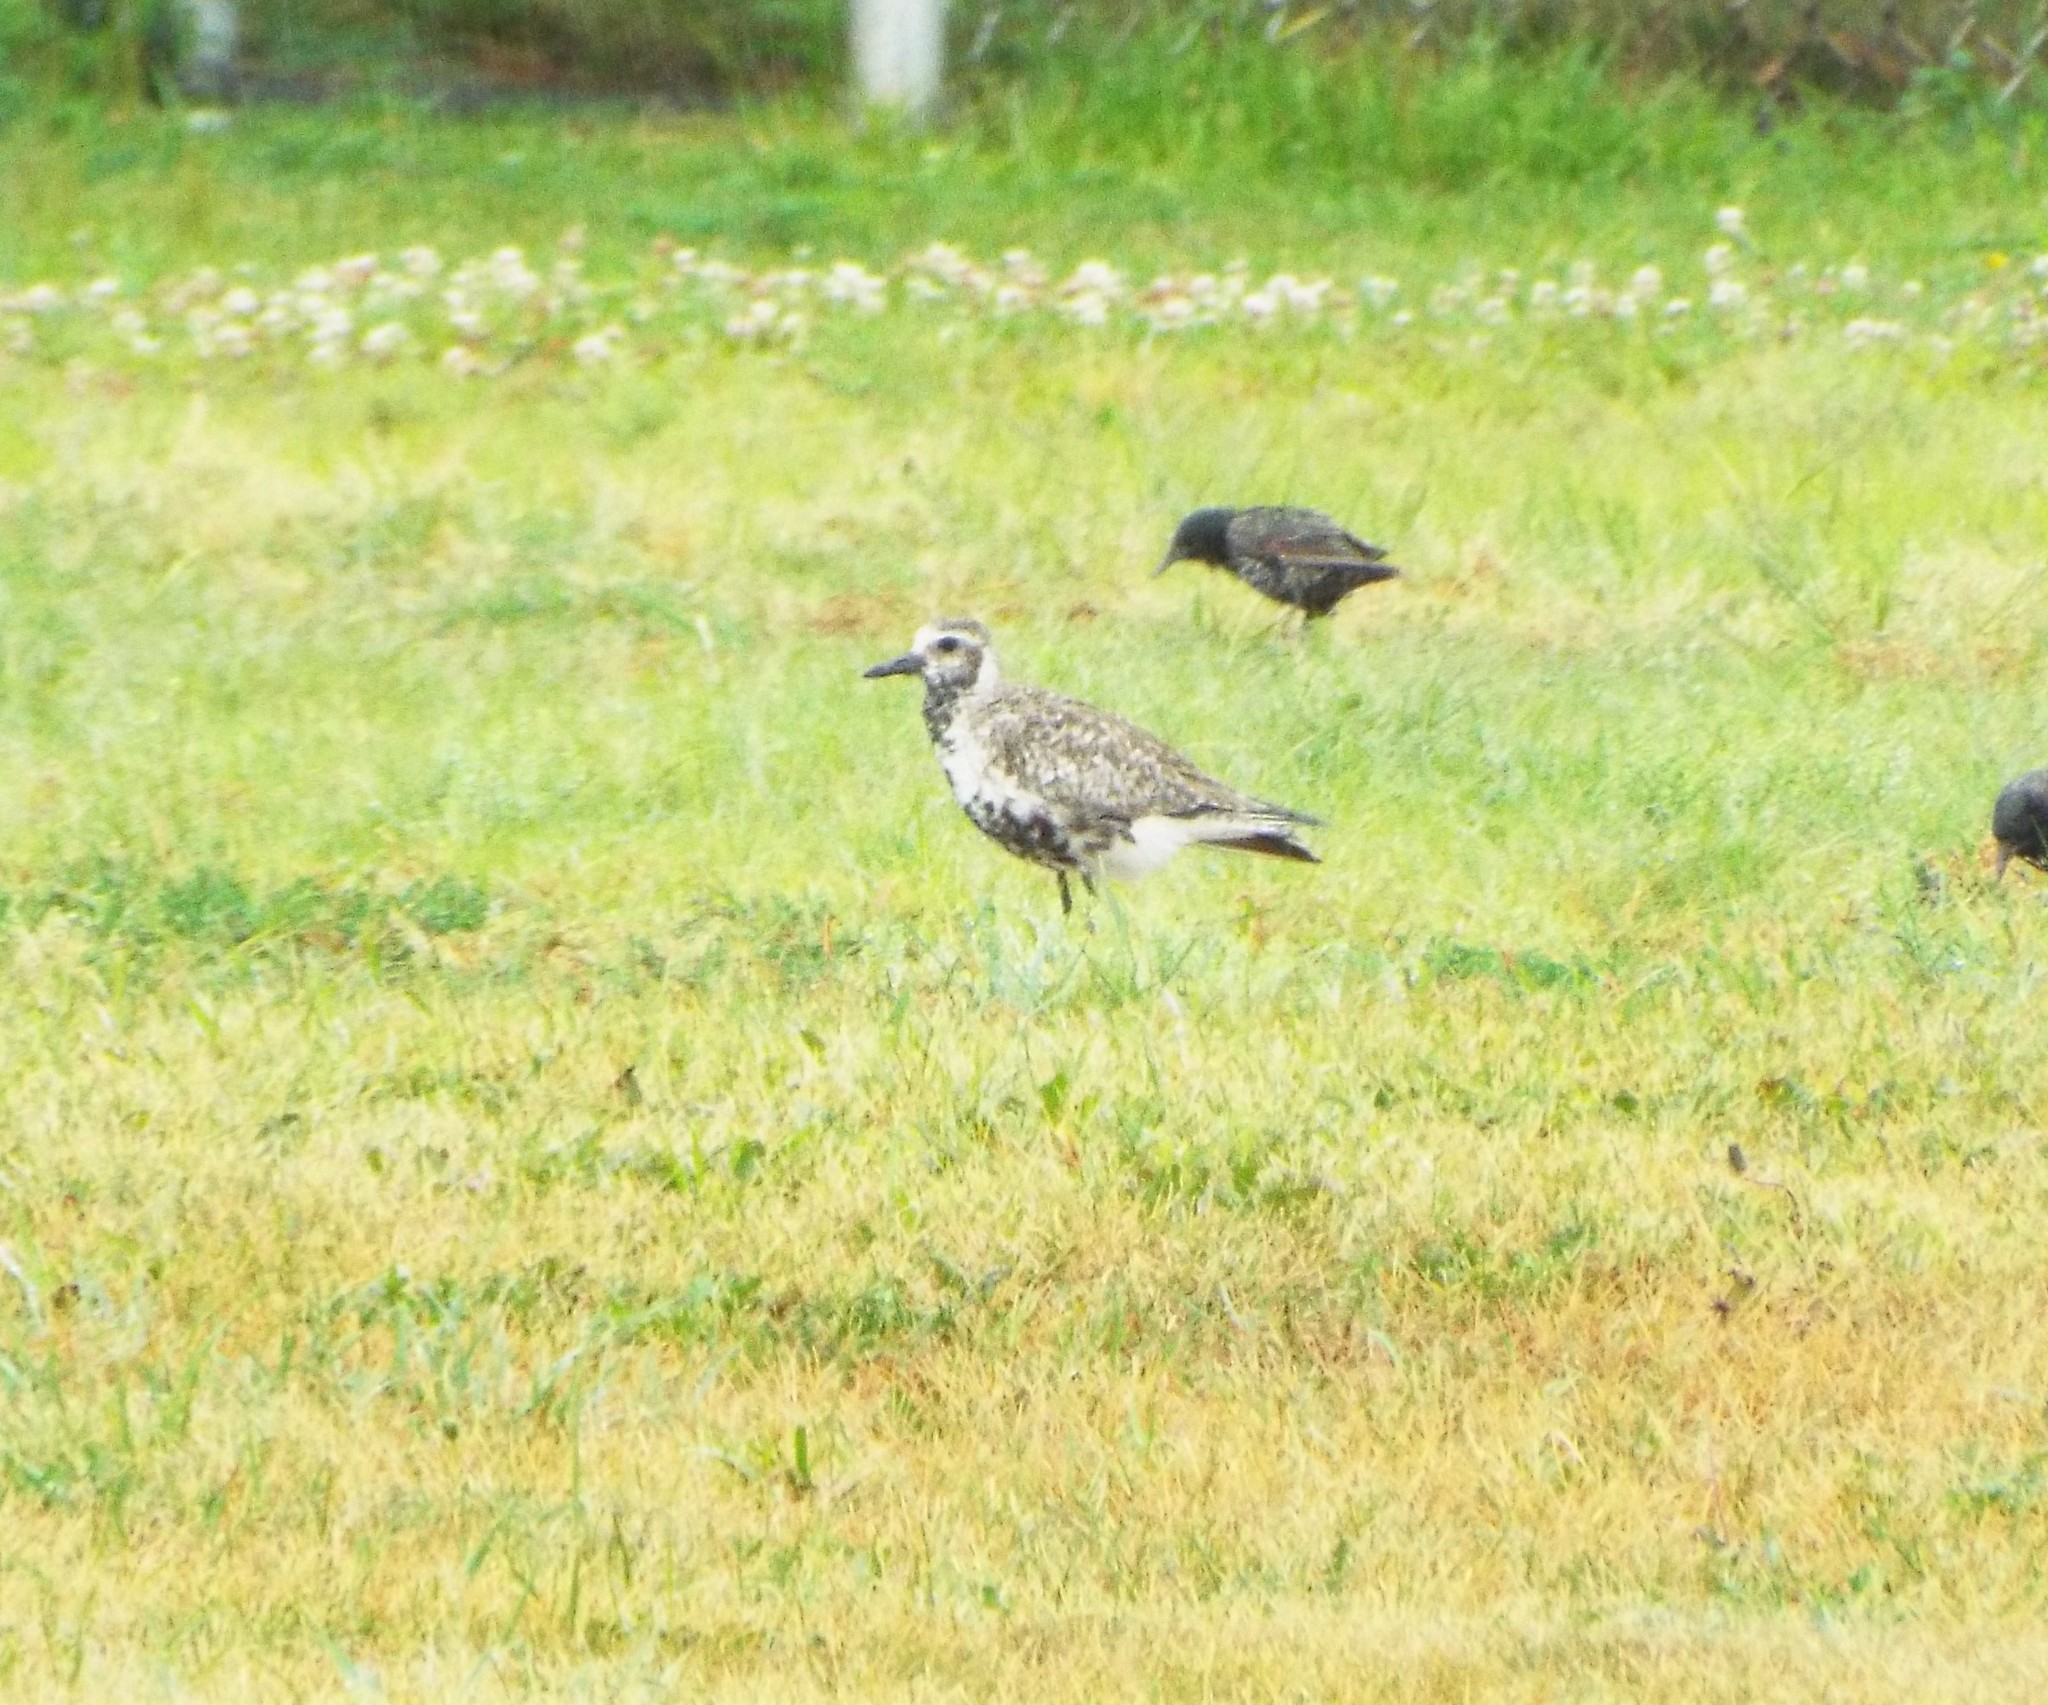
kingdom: Animalia
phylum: Chordata
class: Aves
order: Charadriiformes
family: Charadriidae
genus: Pluvialis
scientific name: Pluvialis squatarola
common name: Grey plover
